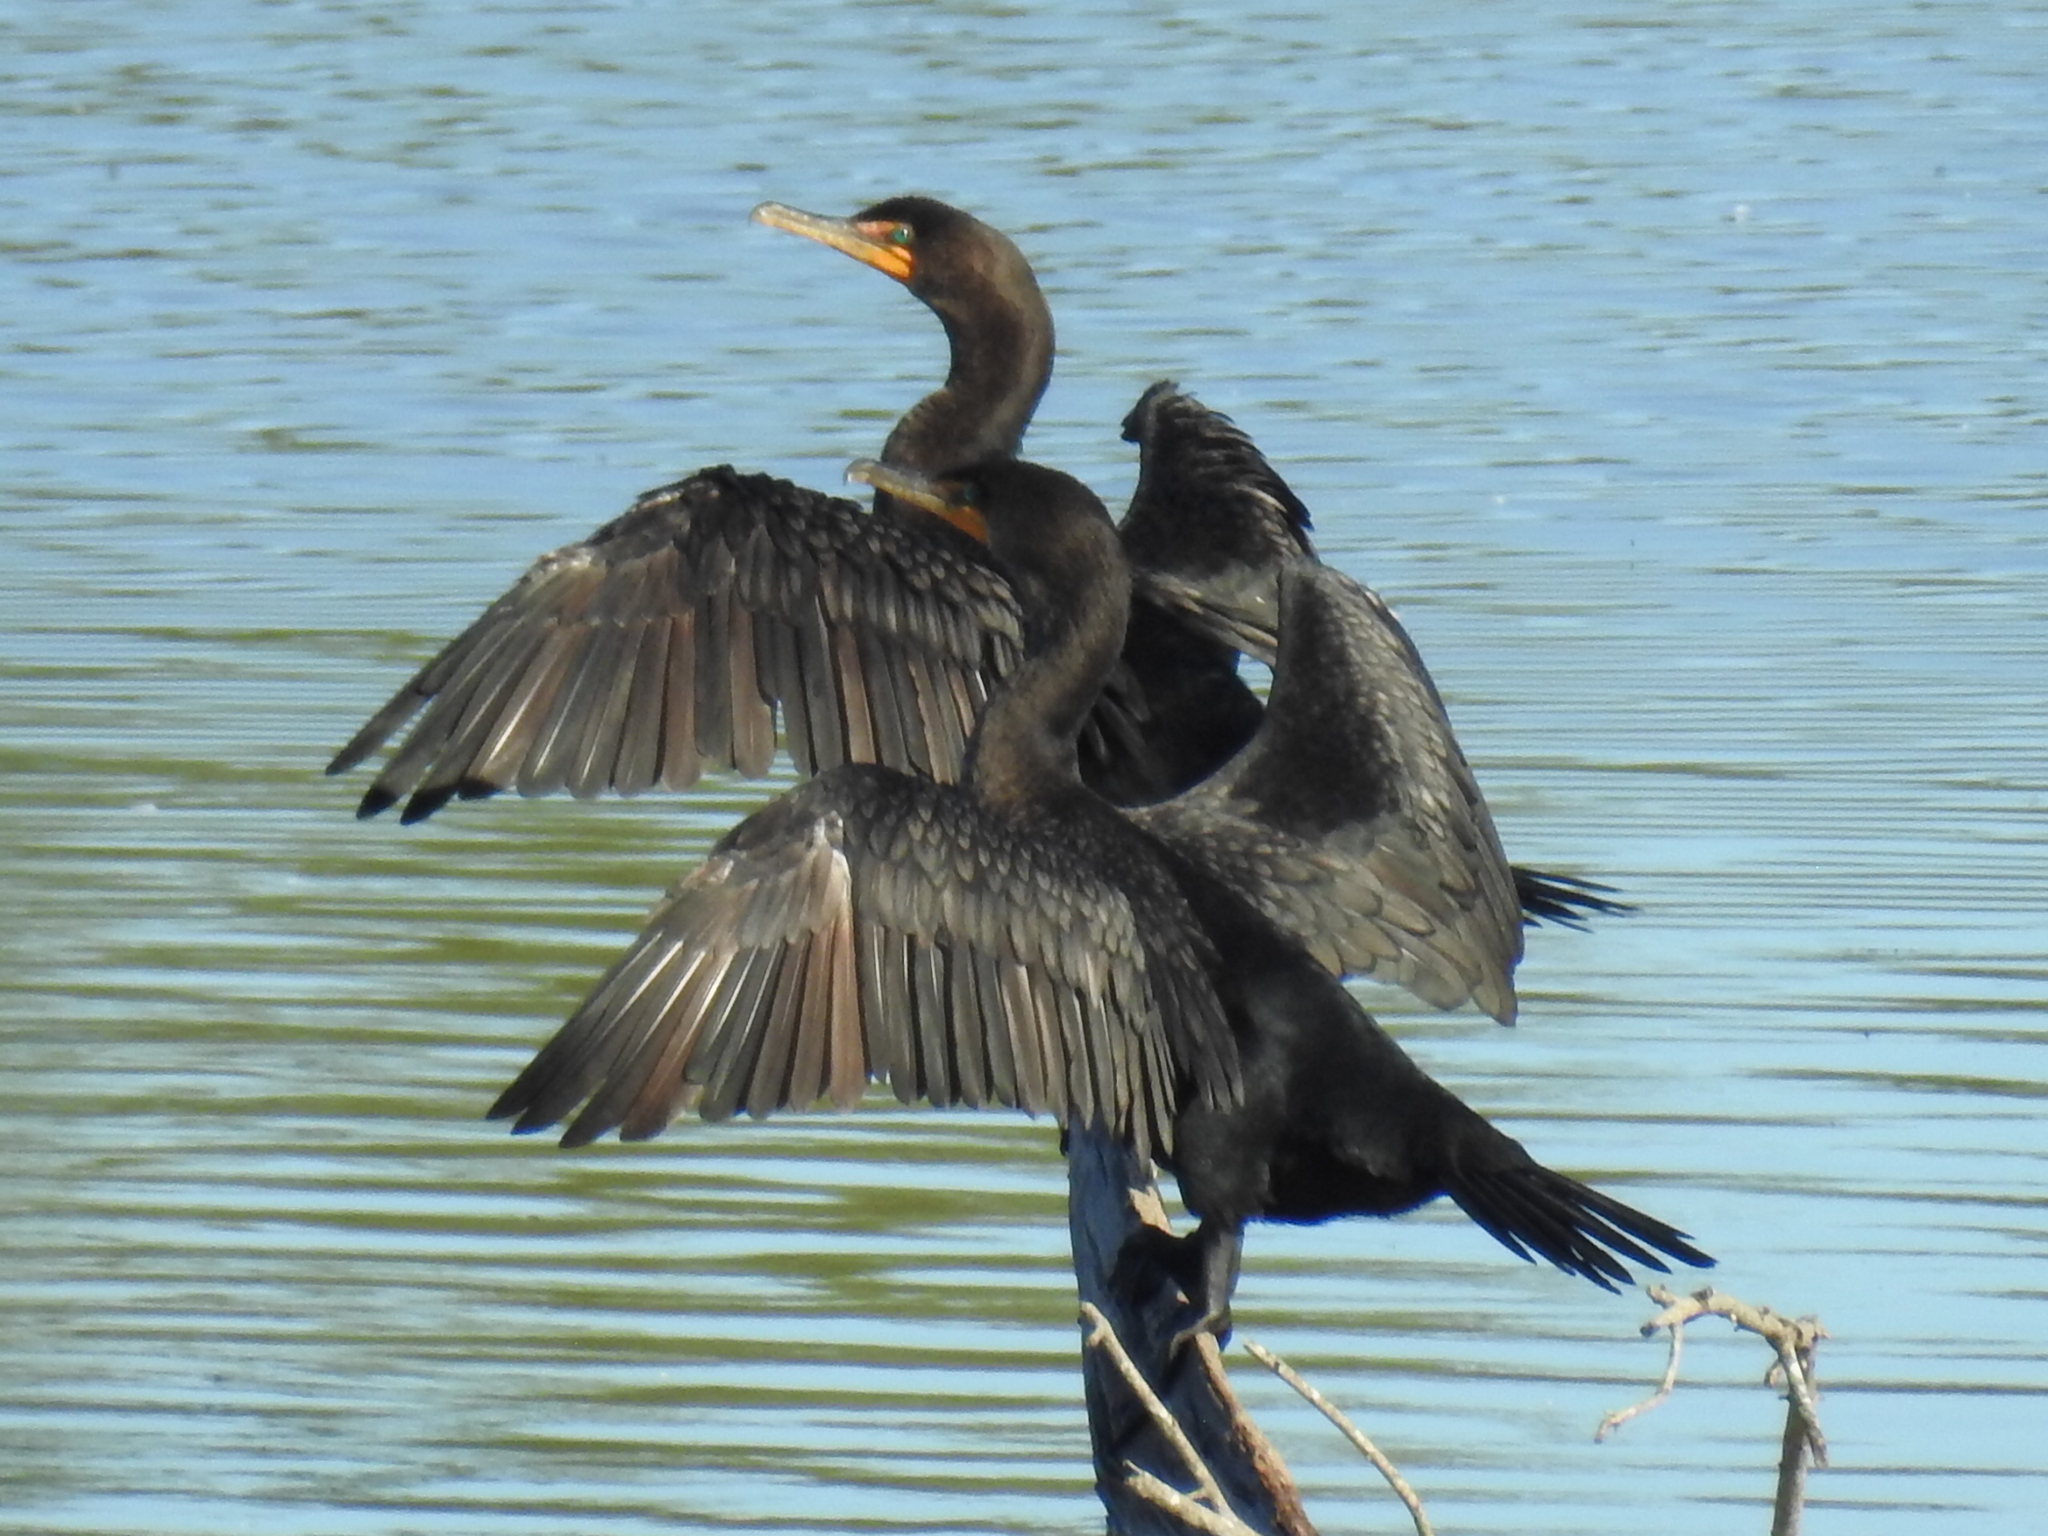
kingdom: Animalia
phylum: Chordata
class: Aves
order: Suliformes
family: Phalacrocoracidae
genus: Phalacrocorax
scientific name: Phalacrocorax auritus
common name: Double-crested cormorant
